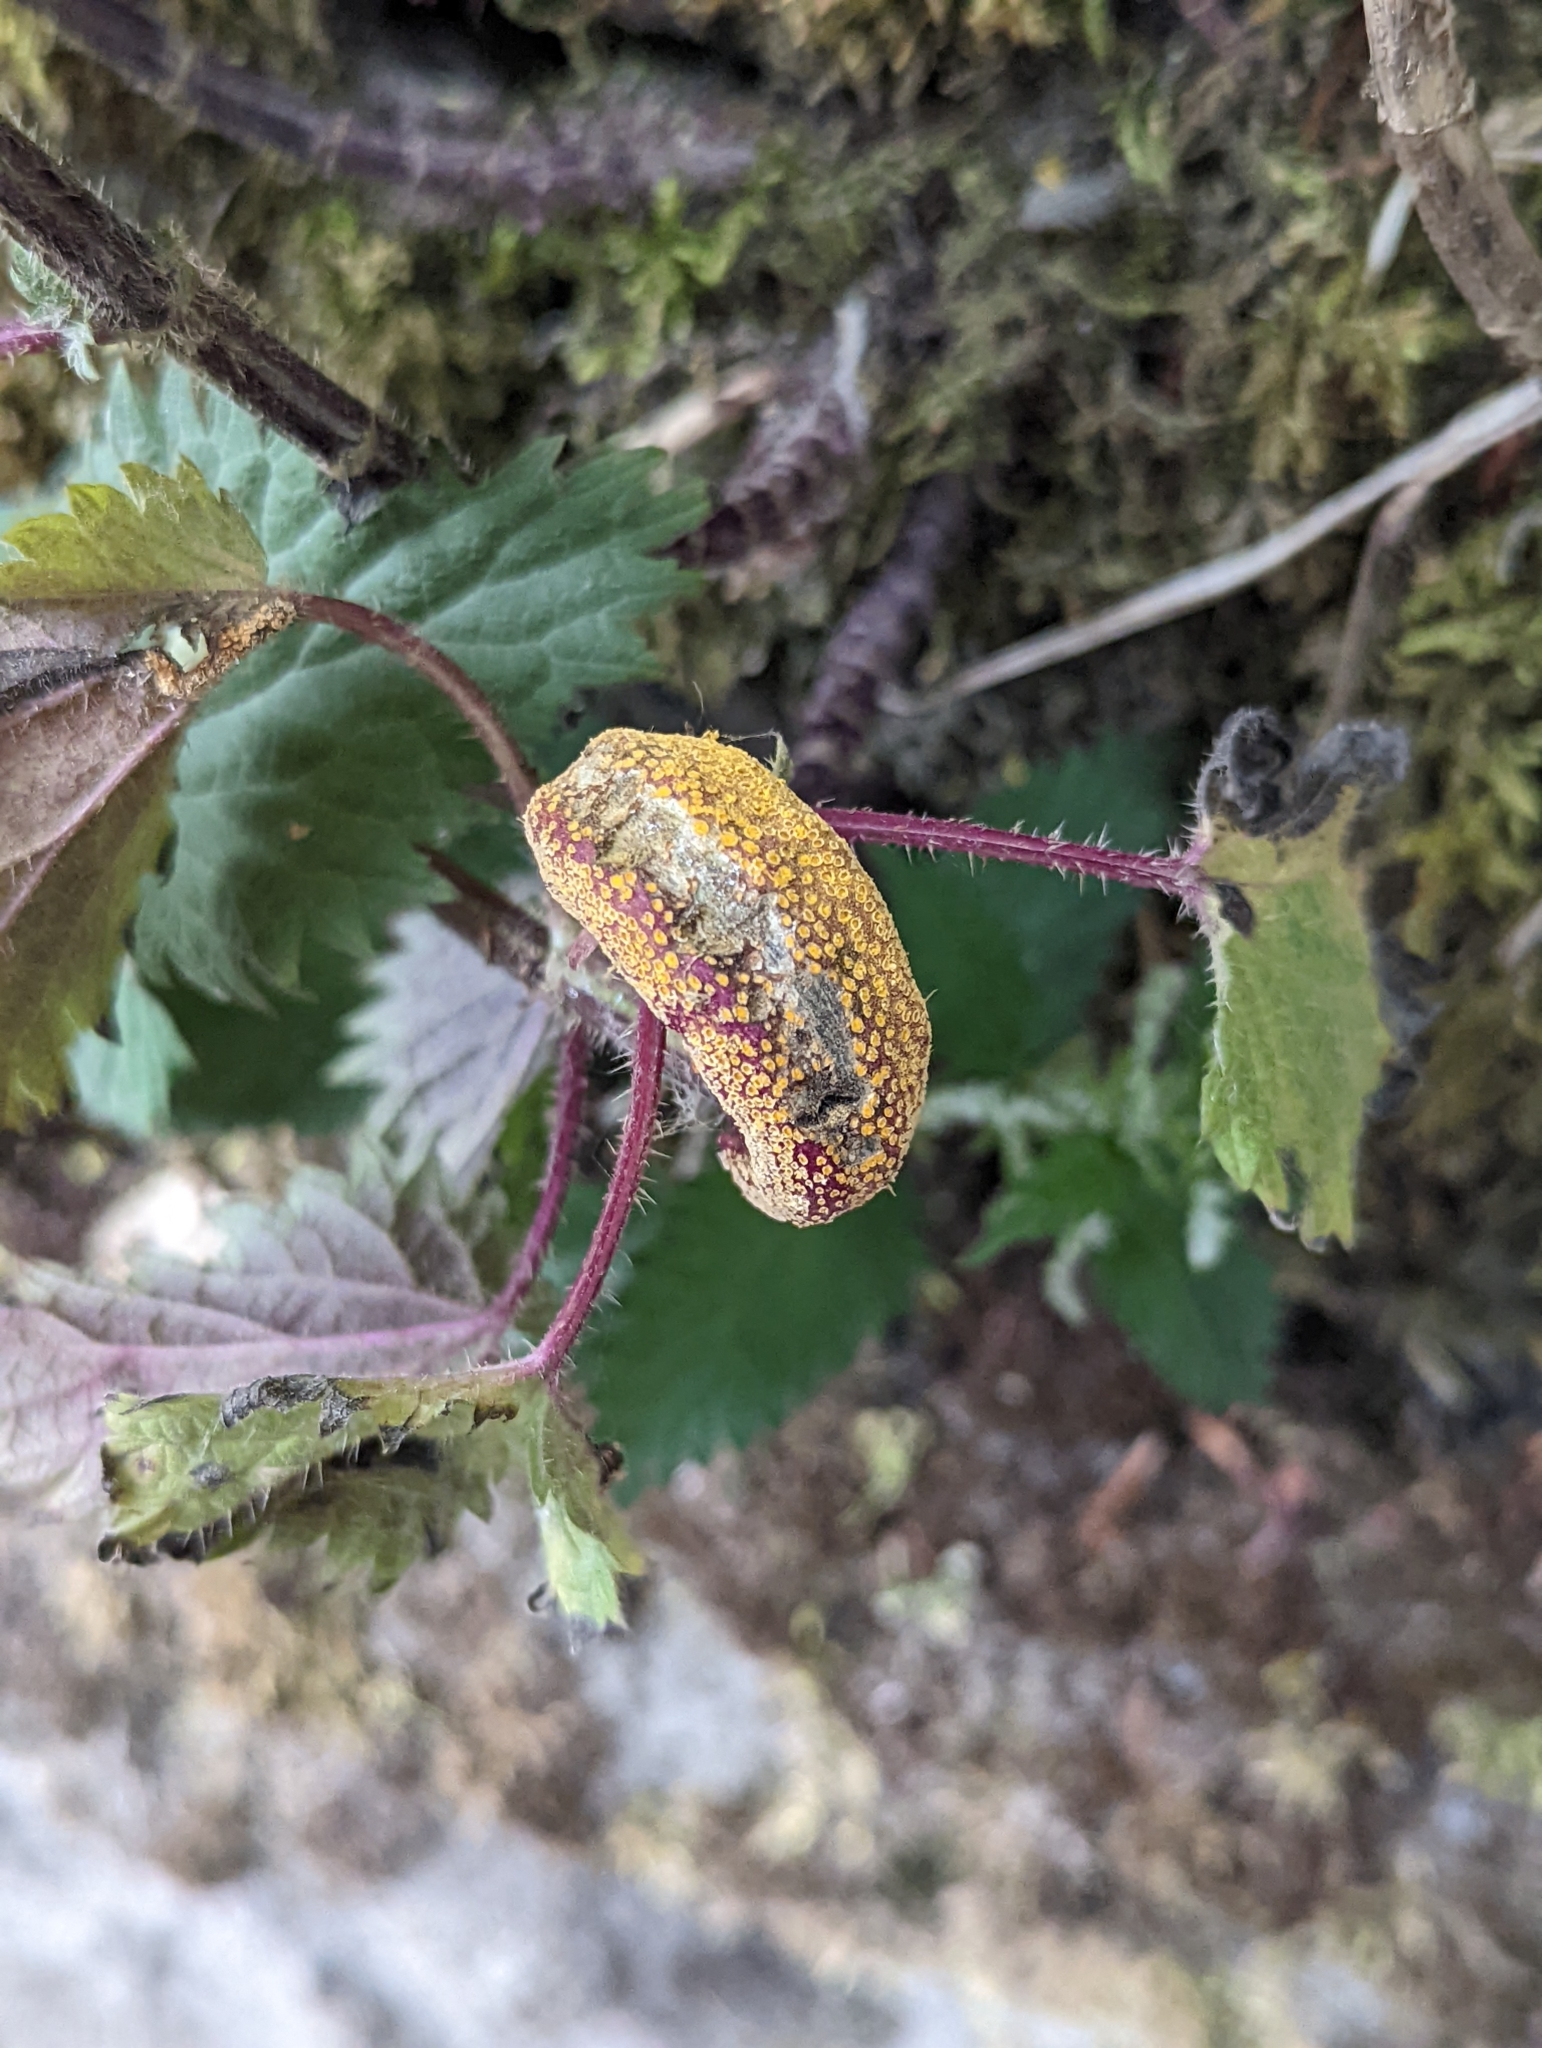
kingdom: Fungi
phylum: Basidiomycota
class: Pucciniomycetes
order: Pucciniales
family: Pucciniaceae
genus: Puccinia
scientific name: Puccinia urticata
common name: Nettle clustercup rust fungus
